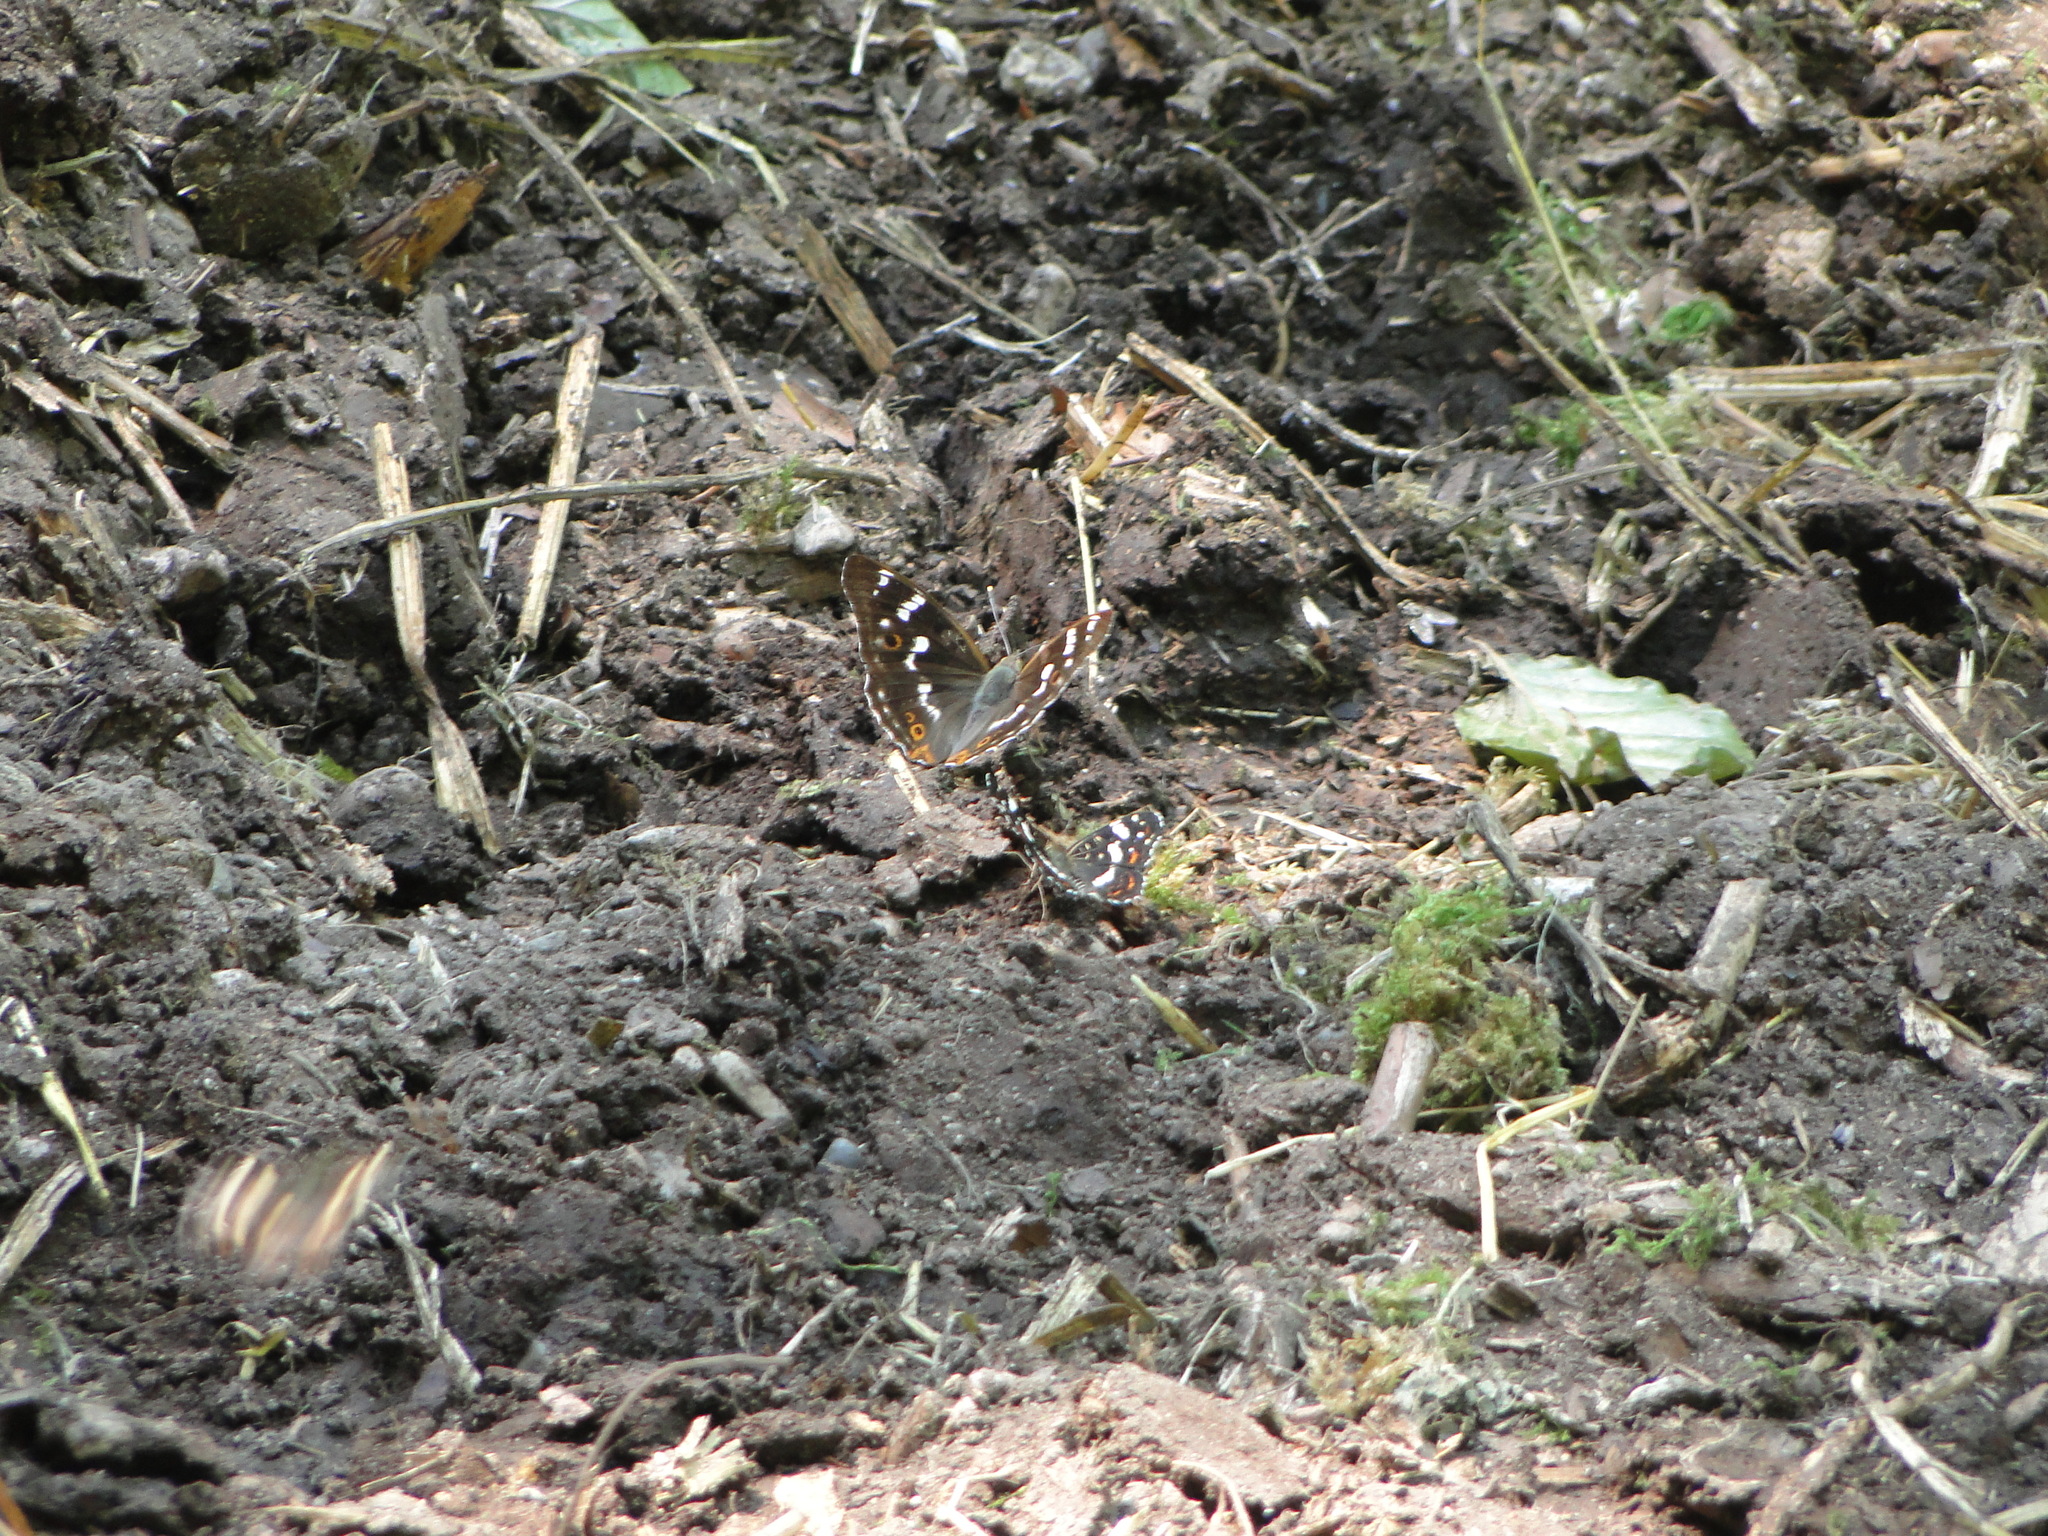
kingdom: Animalia
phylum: Arthropoda
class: Insecta
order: Lepidoptera
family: Nymphalidae
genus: Apatura
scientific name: Apatura ilia
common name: Lesser purple emperor
